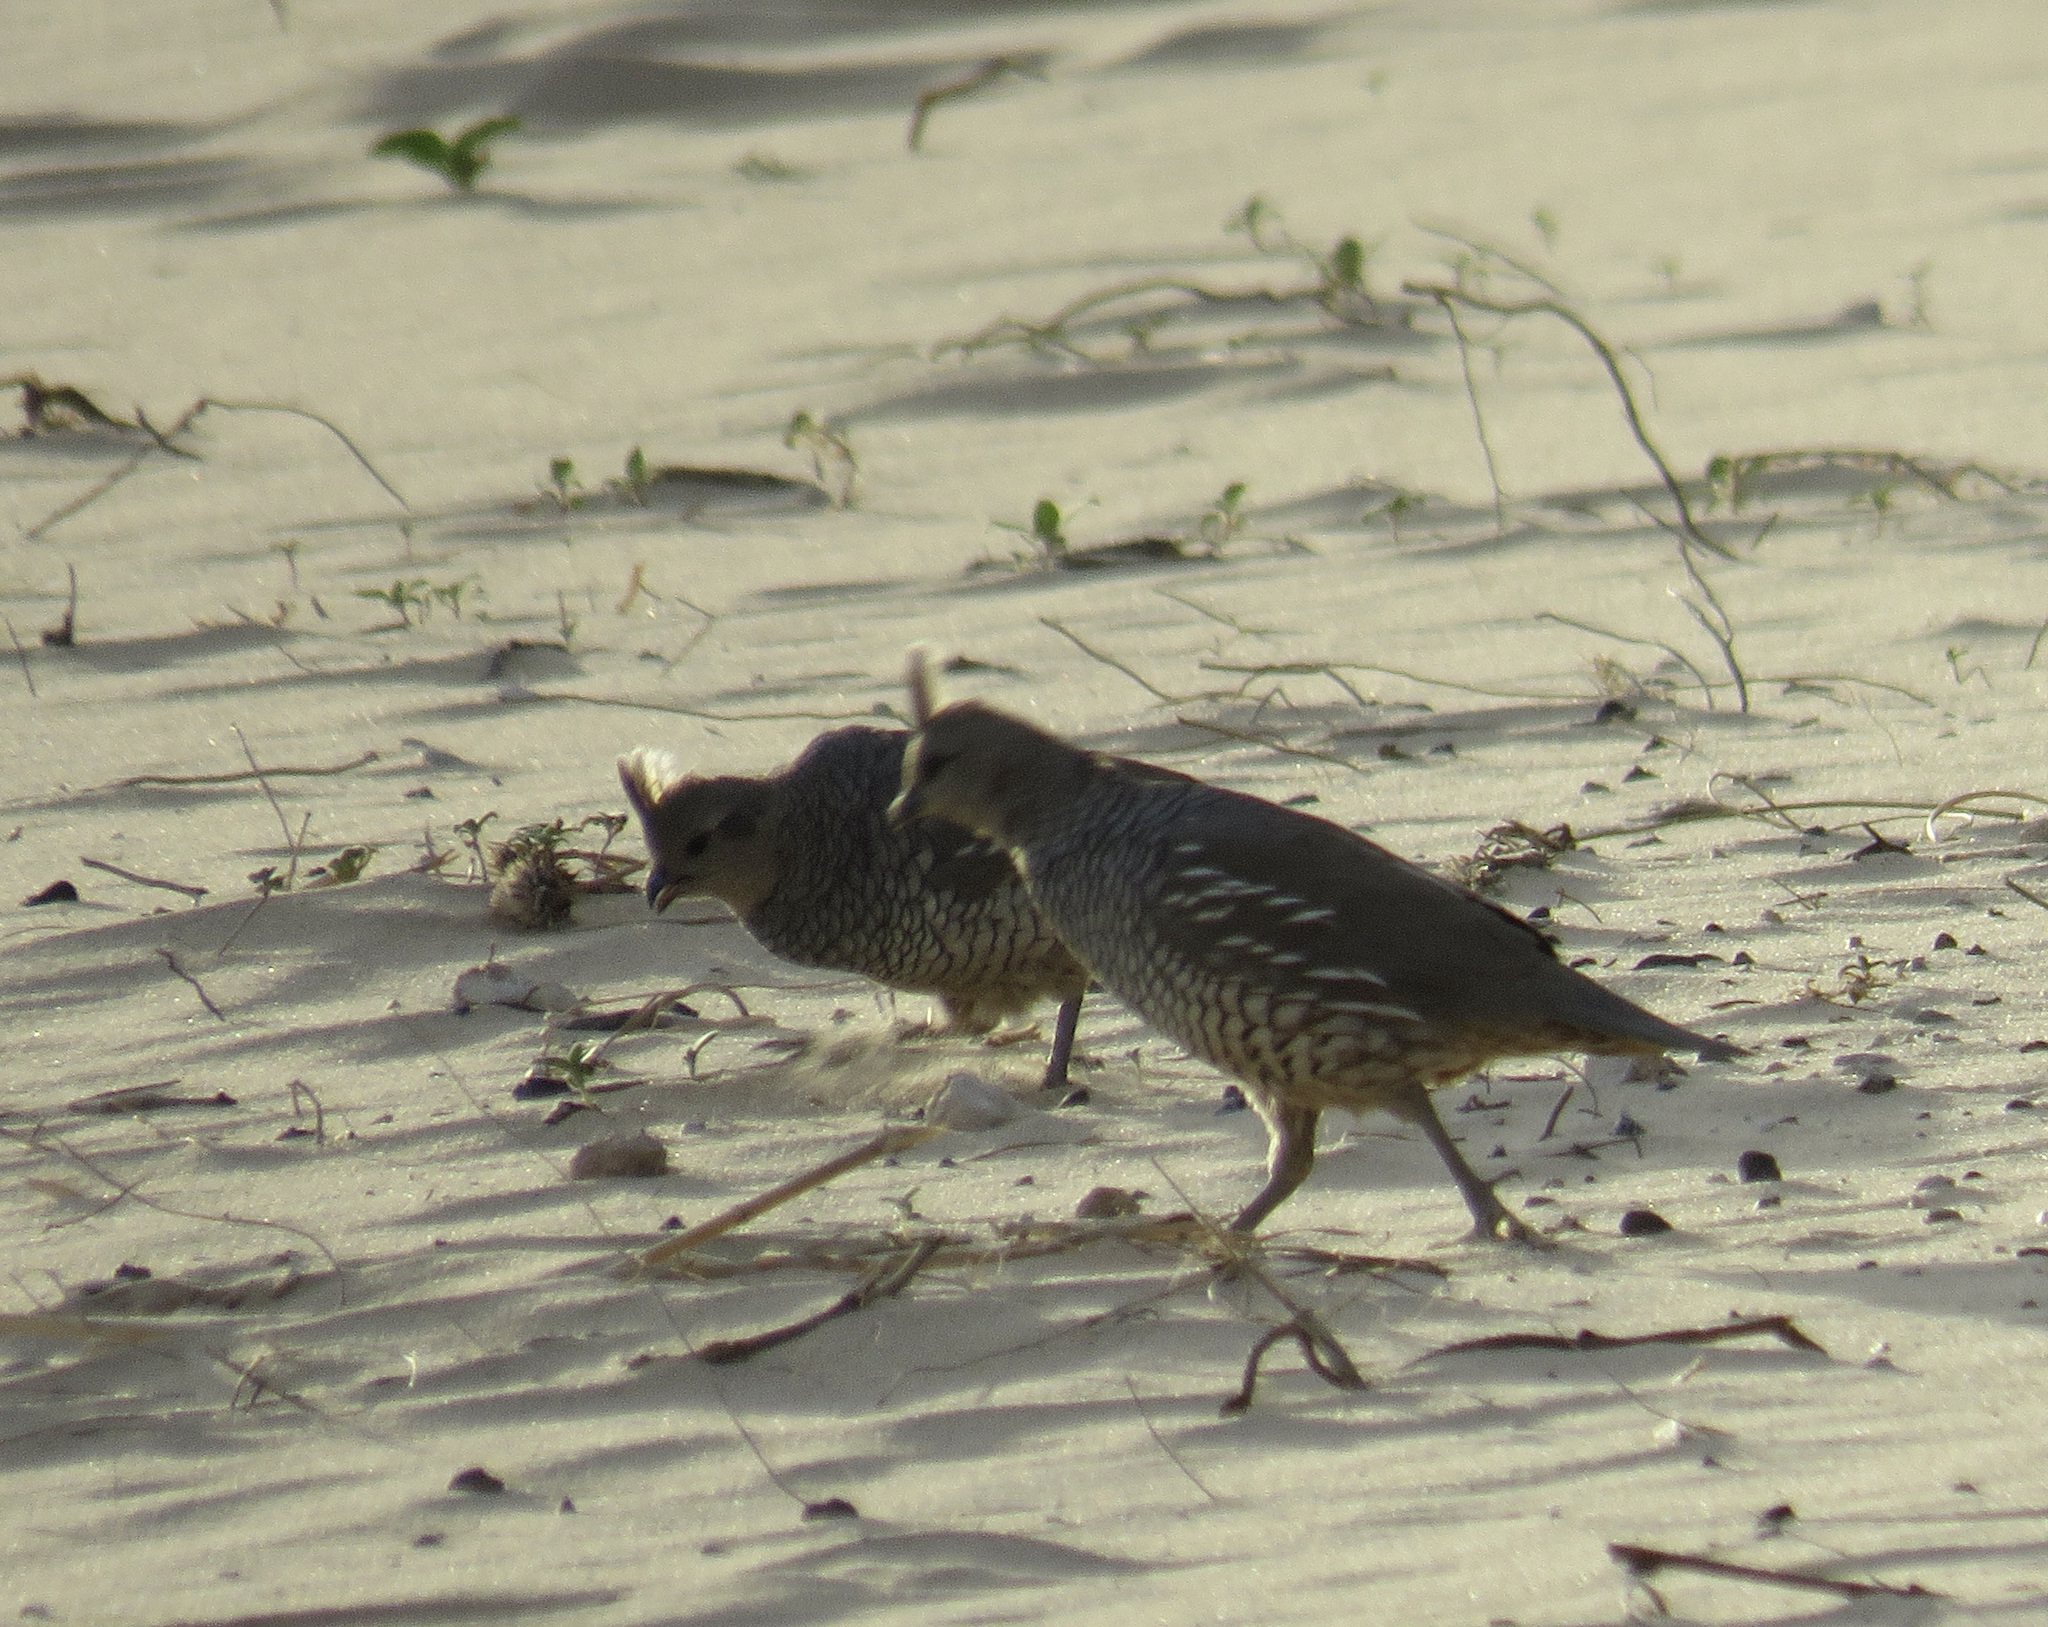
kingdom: Animalia
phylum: Chordata
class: Aves
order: Galliformes
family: Odontophoridae
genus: Callipepla
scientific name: Callipepla squamata
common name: Scaled quail
